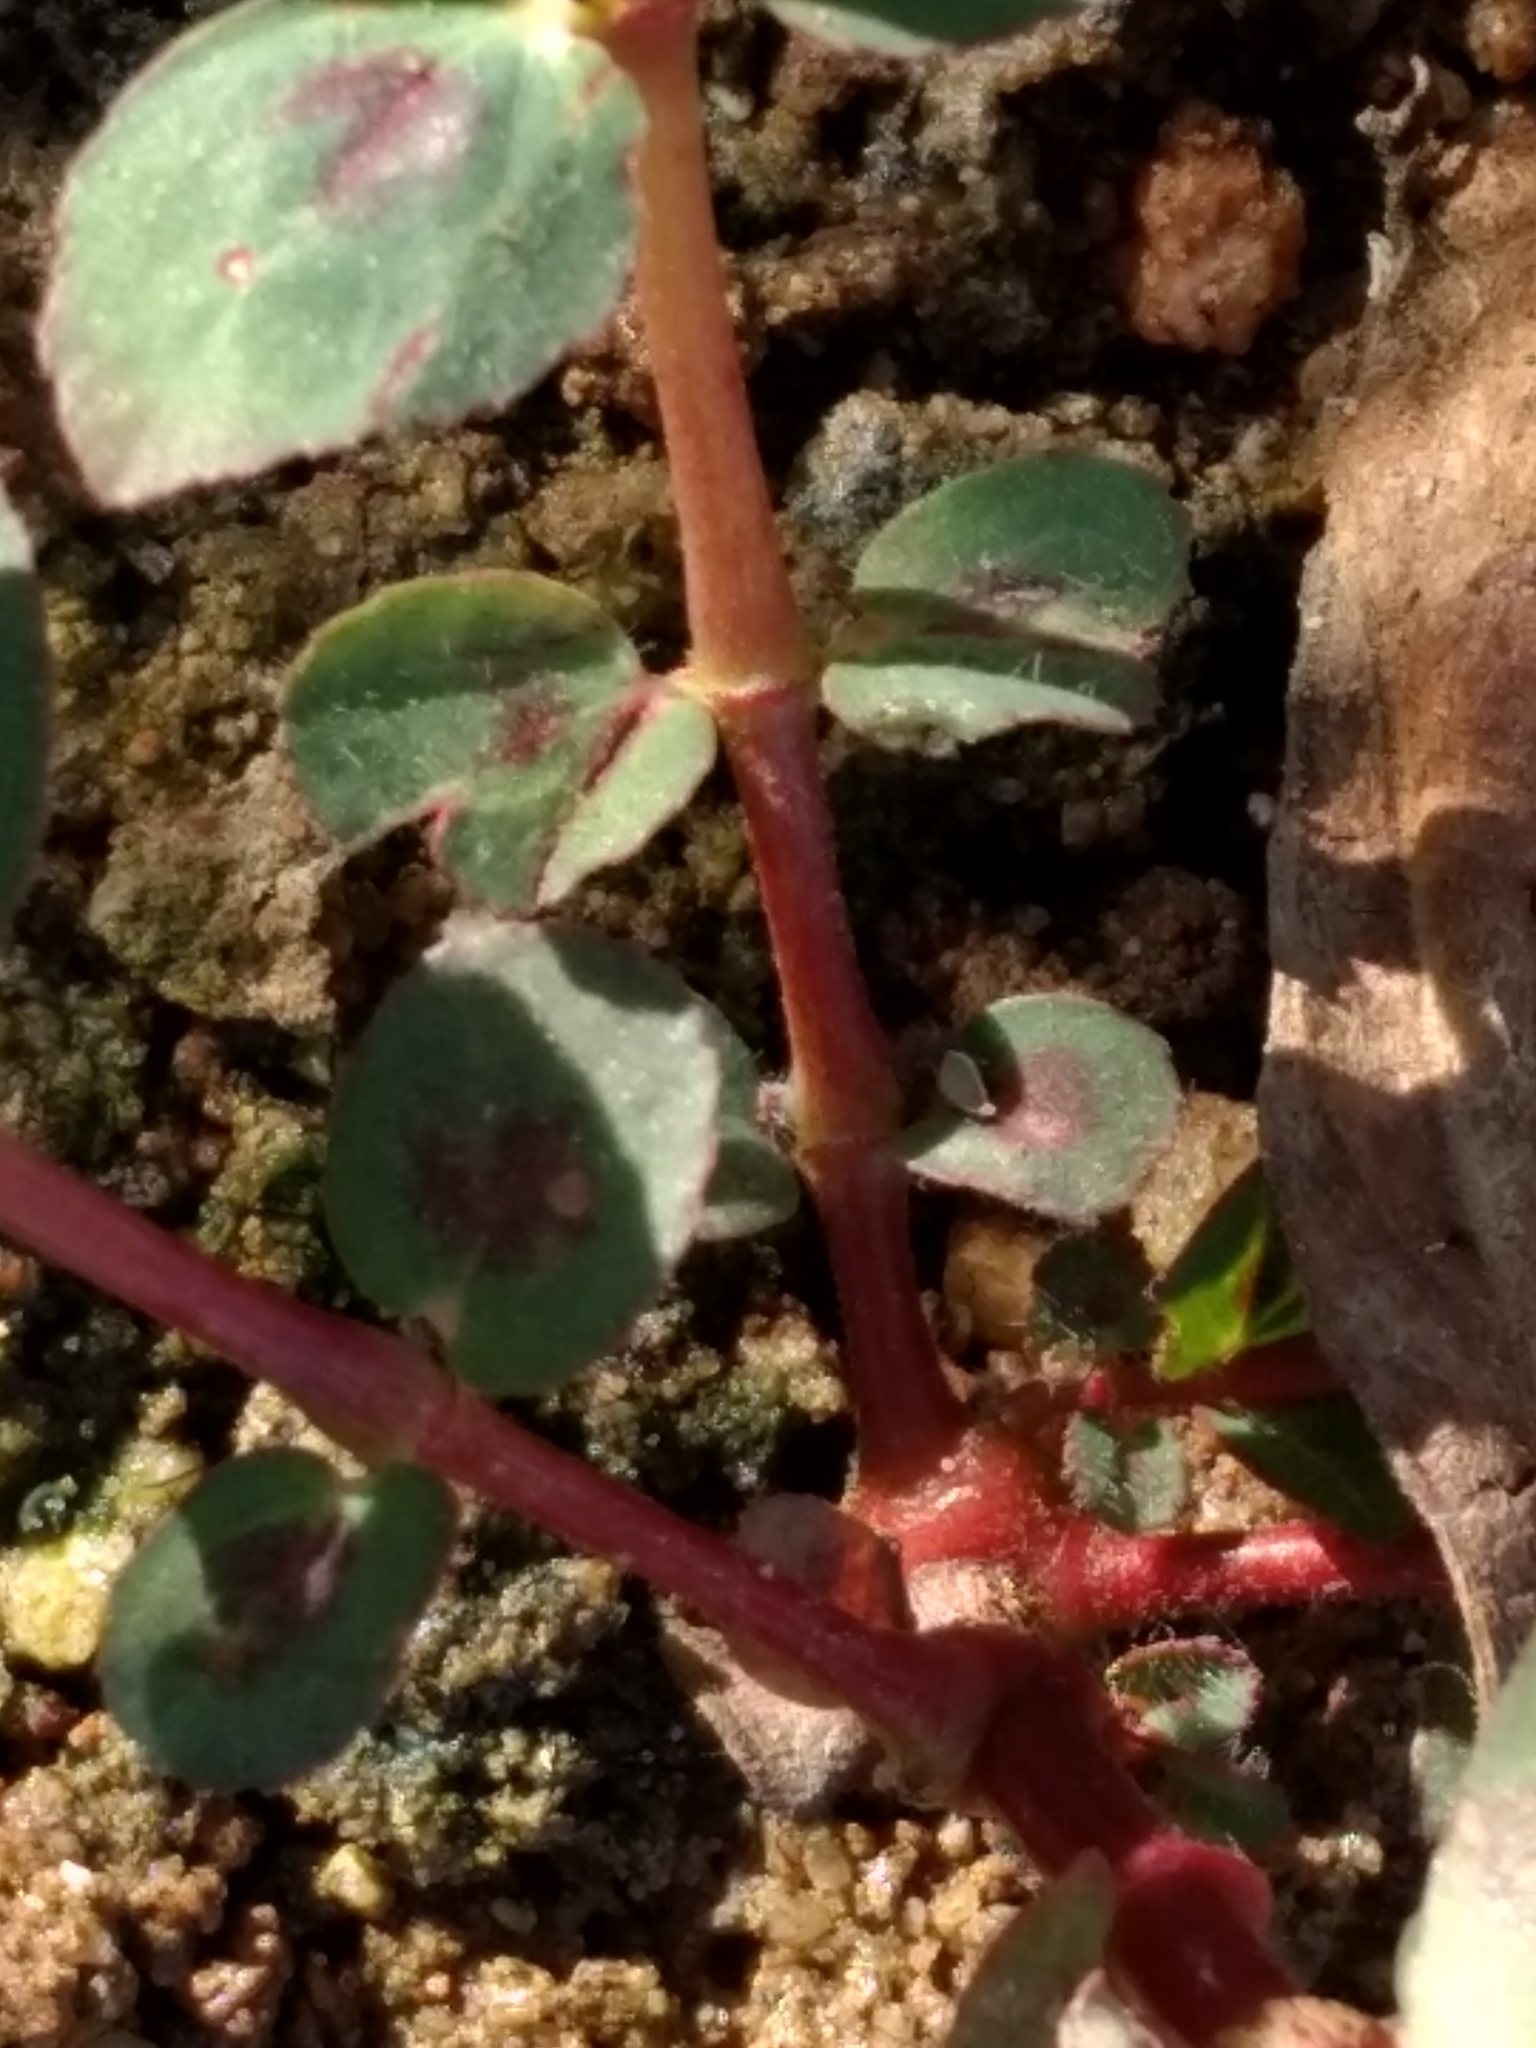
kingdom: Plantae
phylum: Tracheophyta
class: Magnoliopsida
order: Malpighiales
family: Euphorbiaceae
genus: Euphorbia
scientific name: Euphorbia nutans
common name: Eyebane
